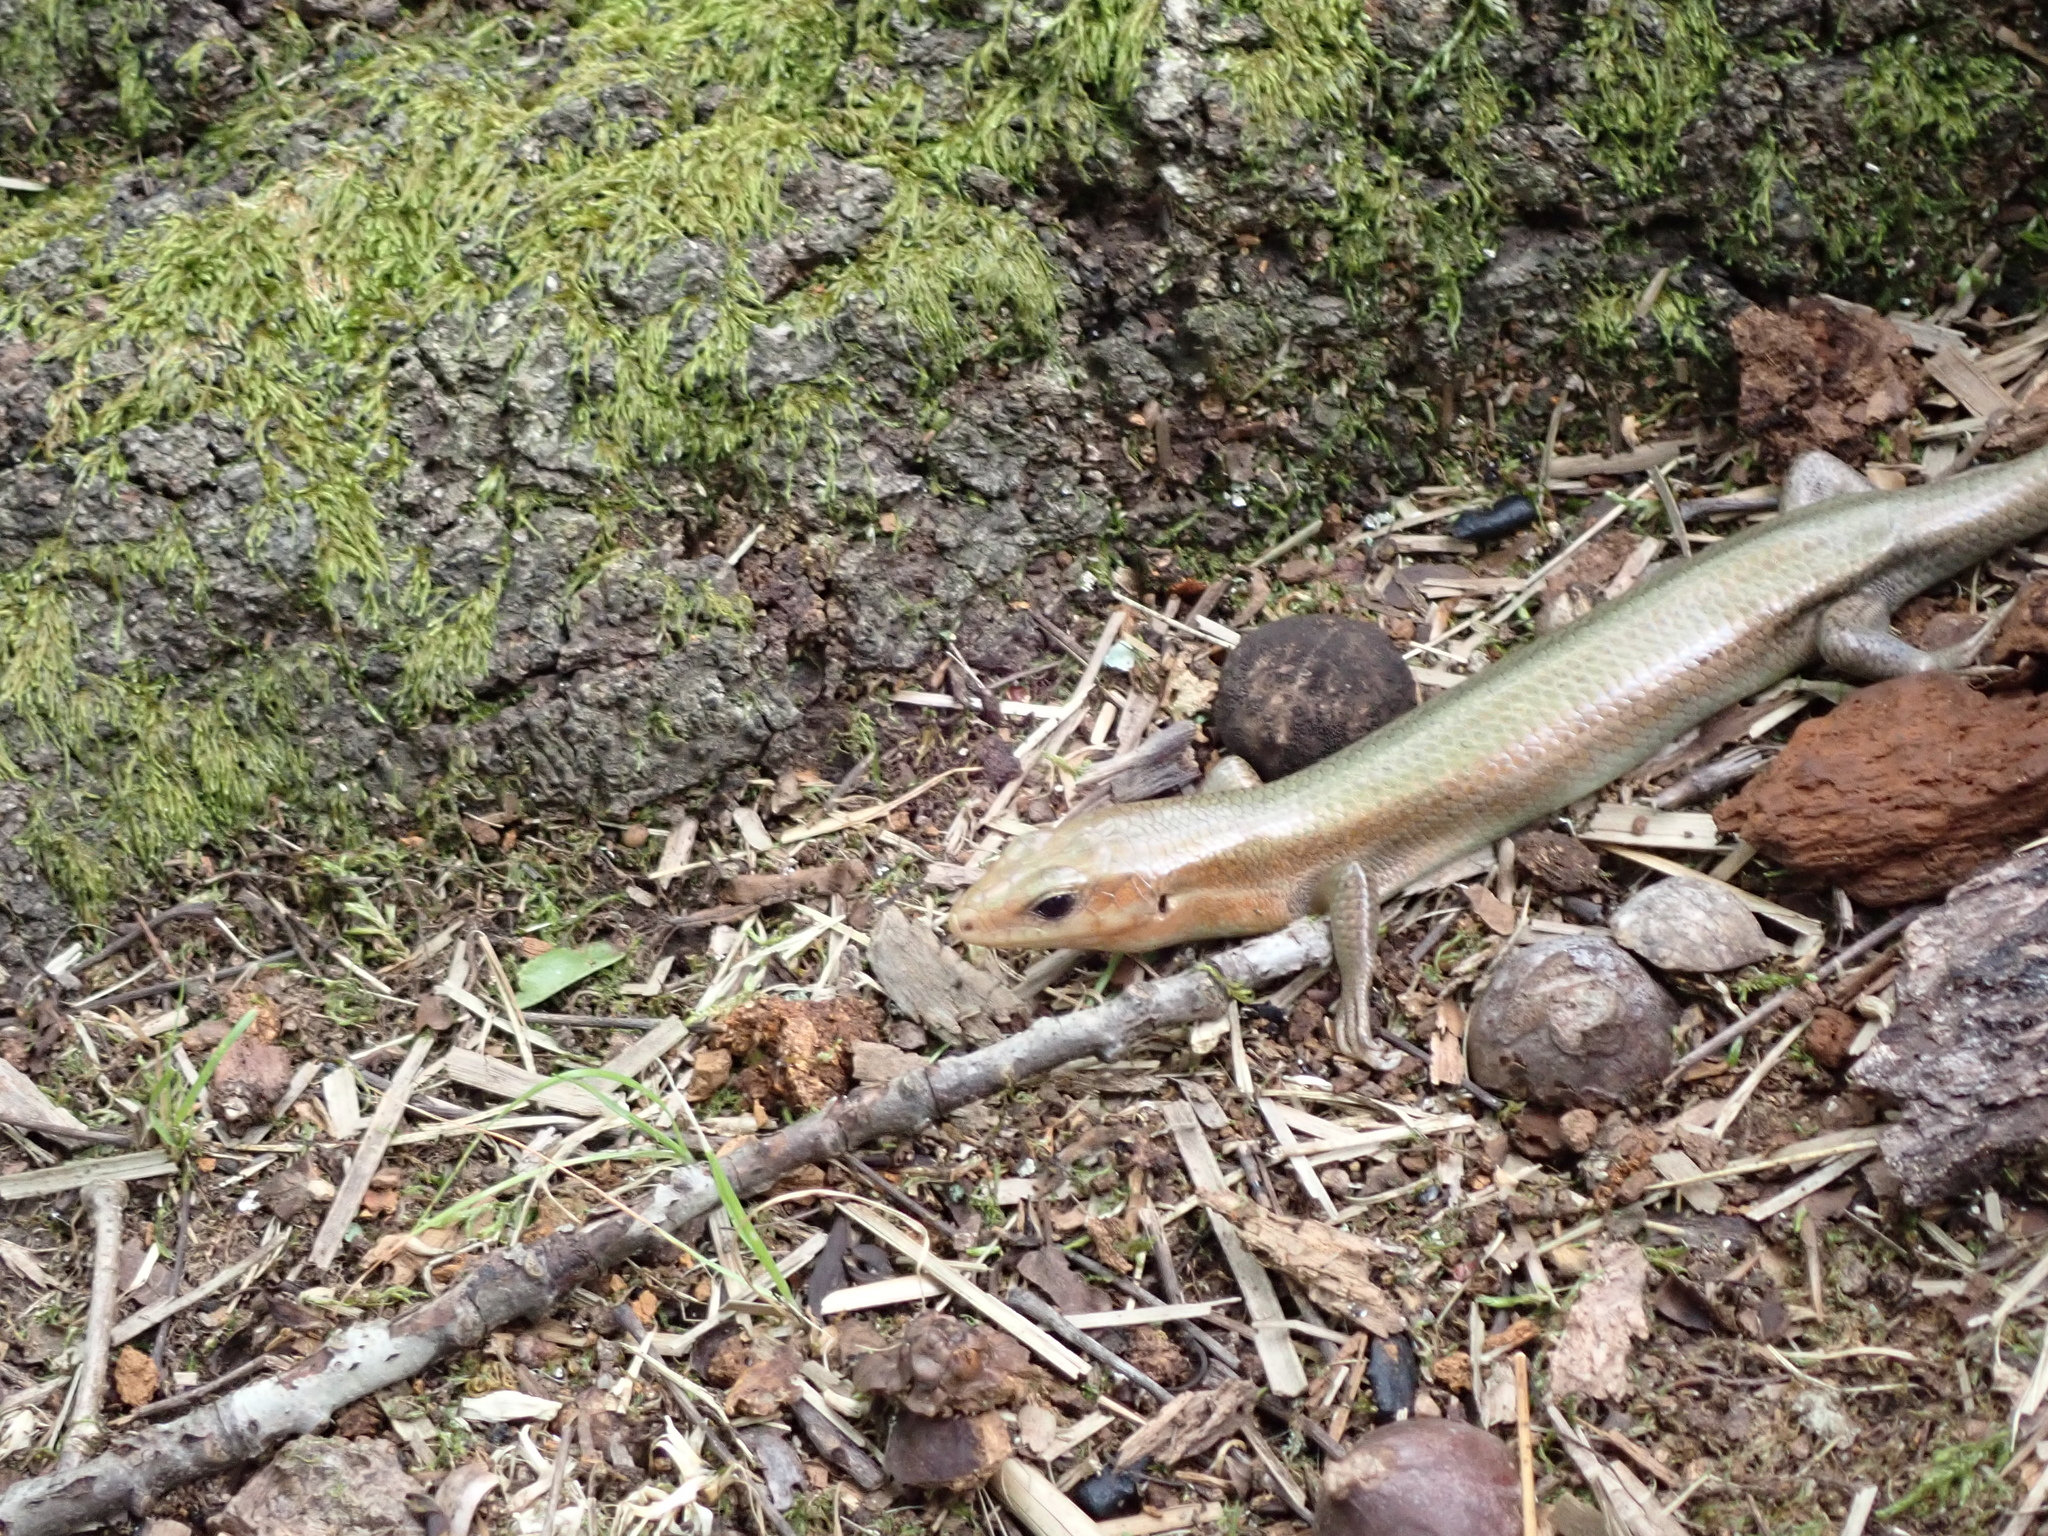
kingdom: Animalia
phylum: Chordata
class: Squamata
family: Scincidae
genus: Plestiodon
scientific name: Plestiodon laticeps
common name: Broadhead skink
